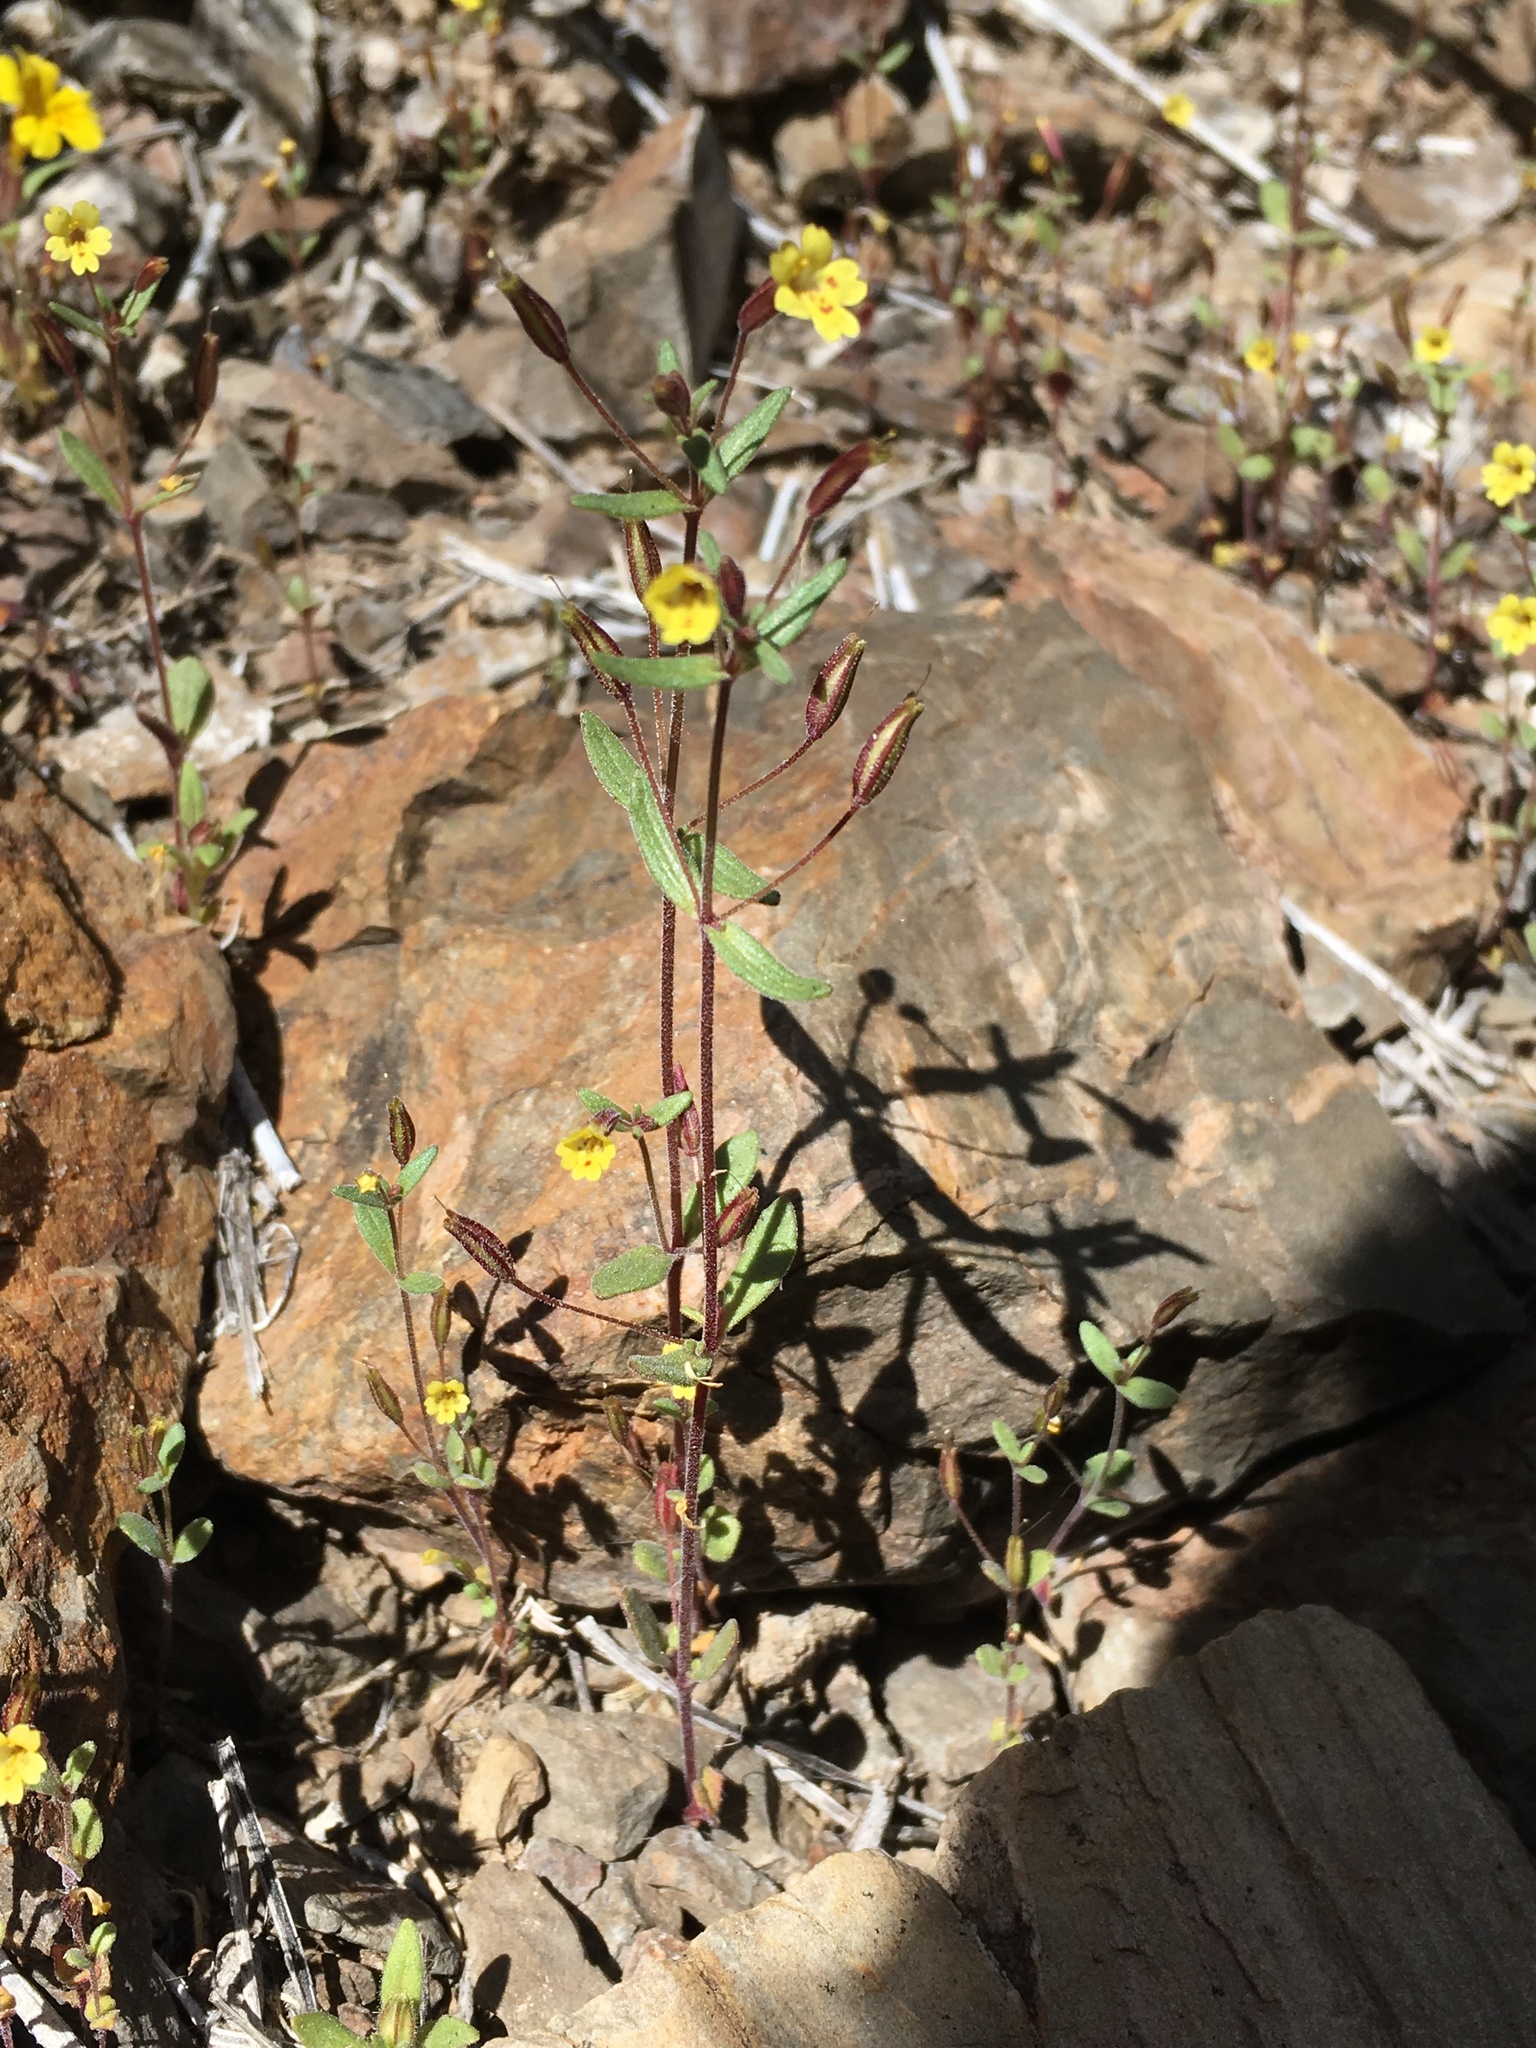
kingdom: Plantae
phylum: Tracheophyta
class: Magnoliopsida
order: Lamiales
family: Phrymaceae
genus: Erythranthe
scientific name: Erythranthe rubella
